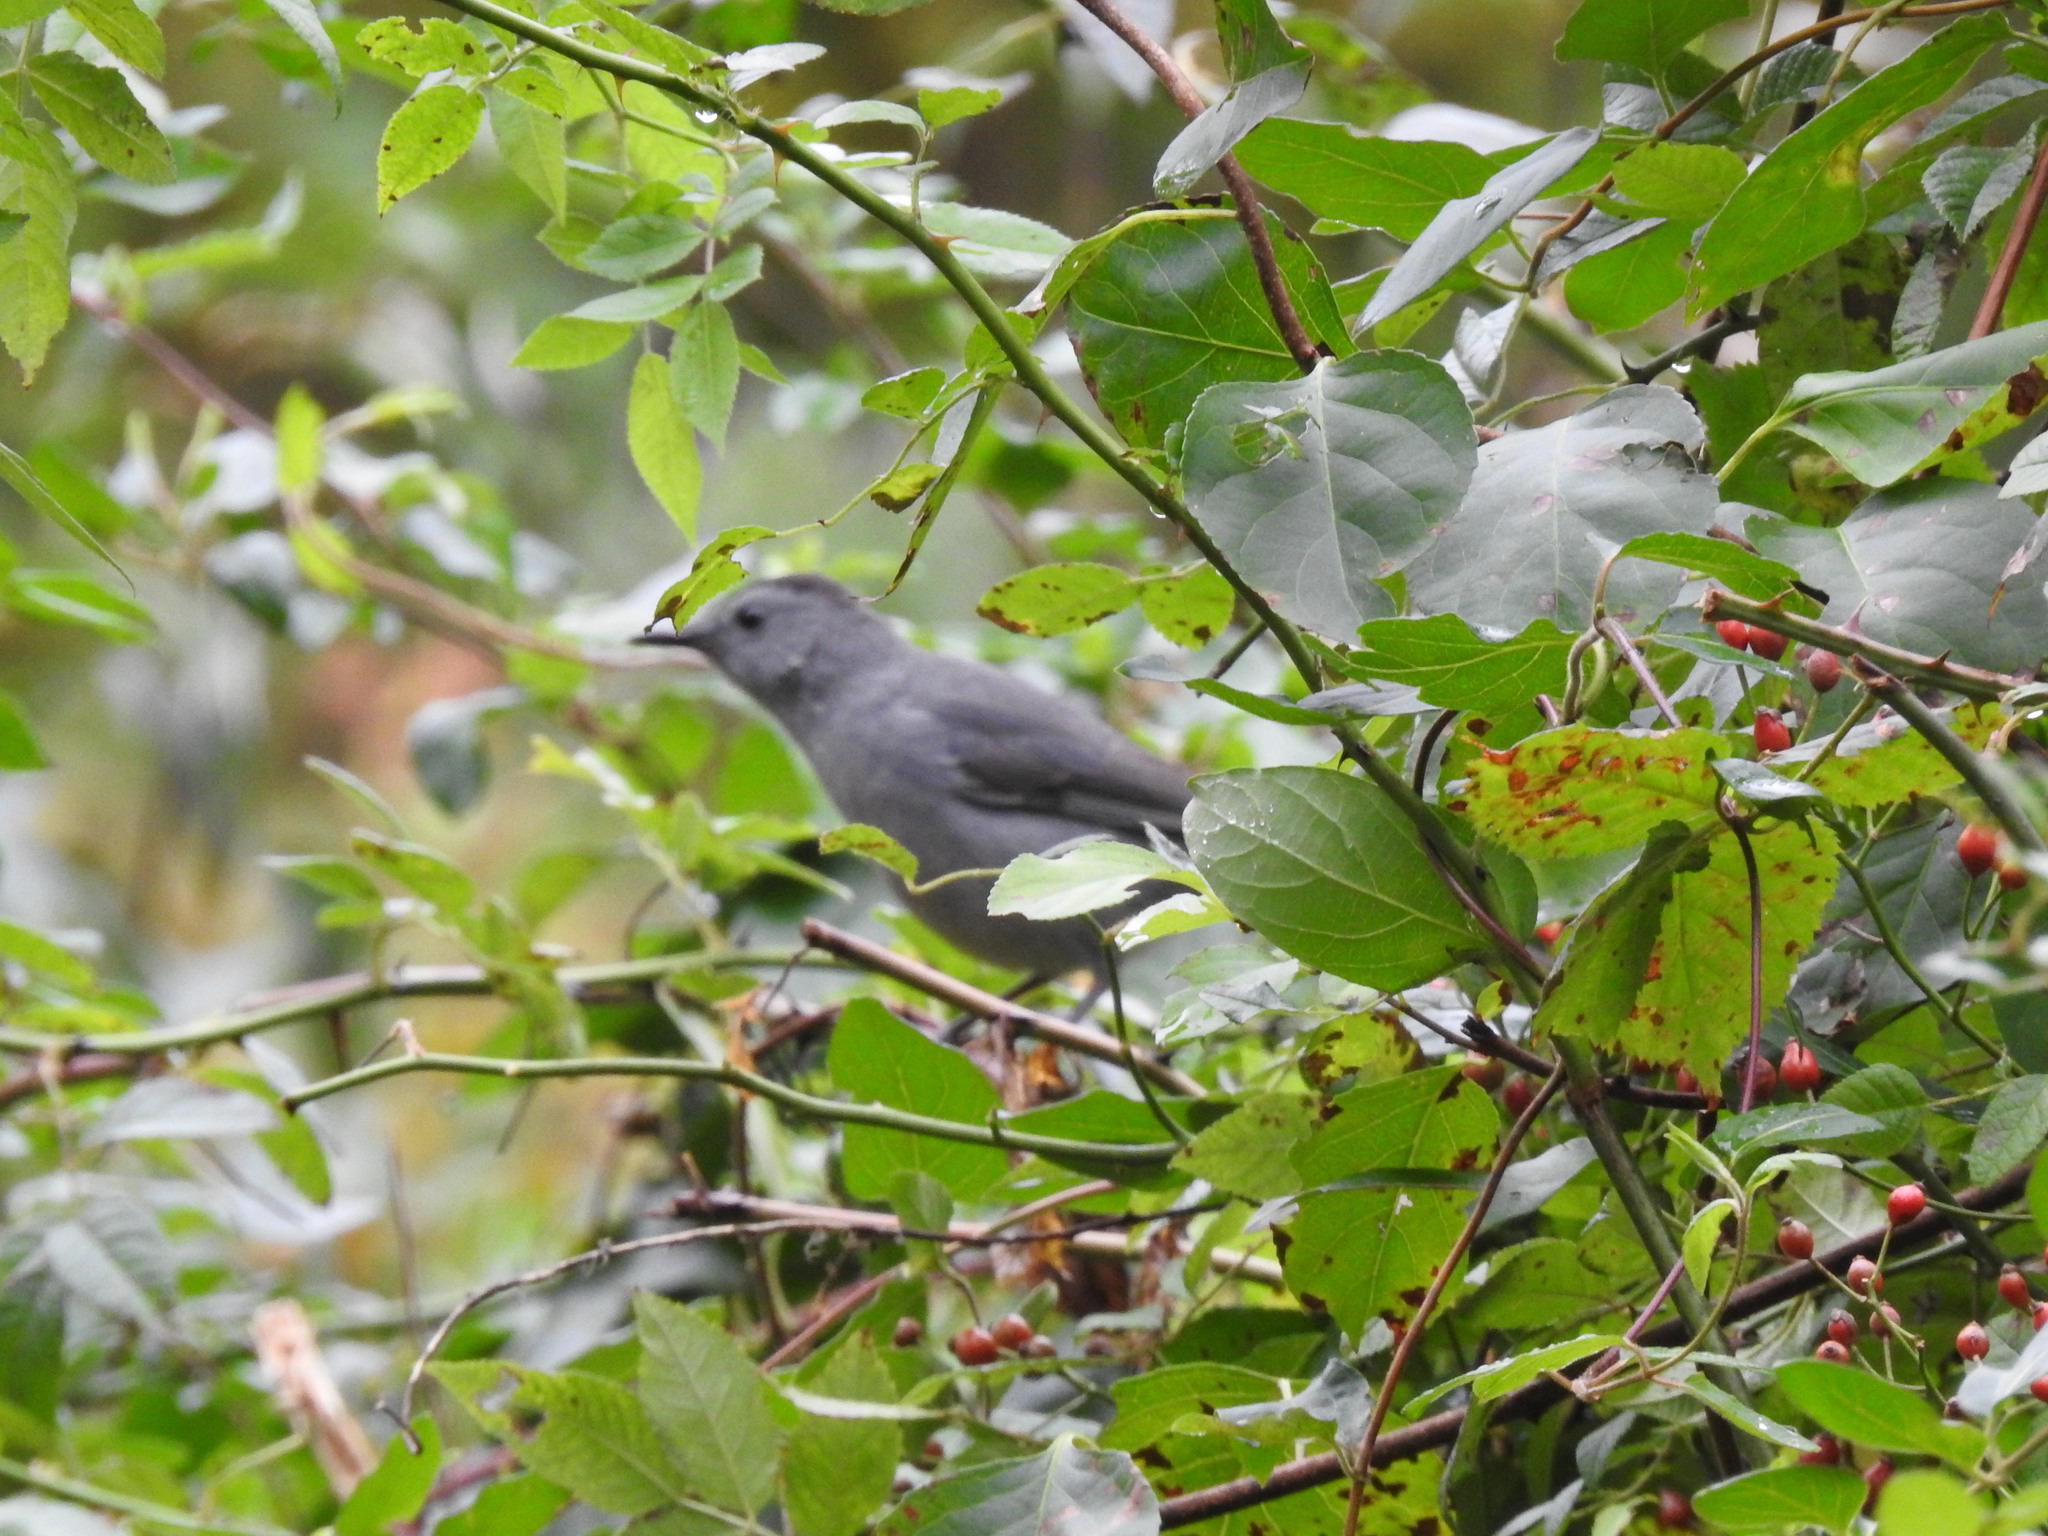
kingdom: Animalia
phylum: Chordata
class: Aves
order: Passeriformes
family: Mimidae
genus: Dumetella
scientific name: Dumetella carolinensis
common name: Gray catbird
